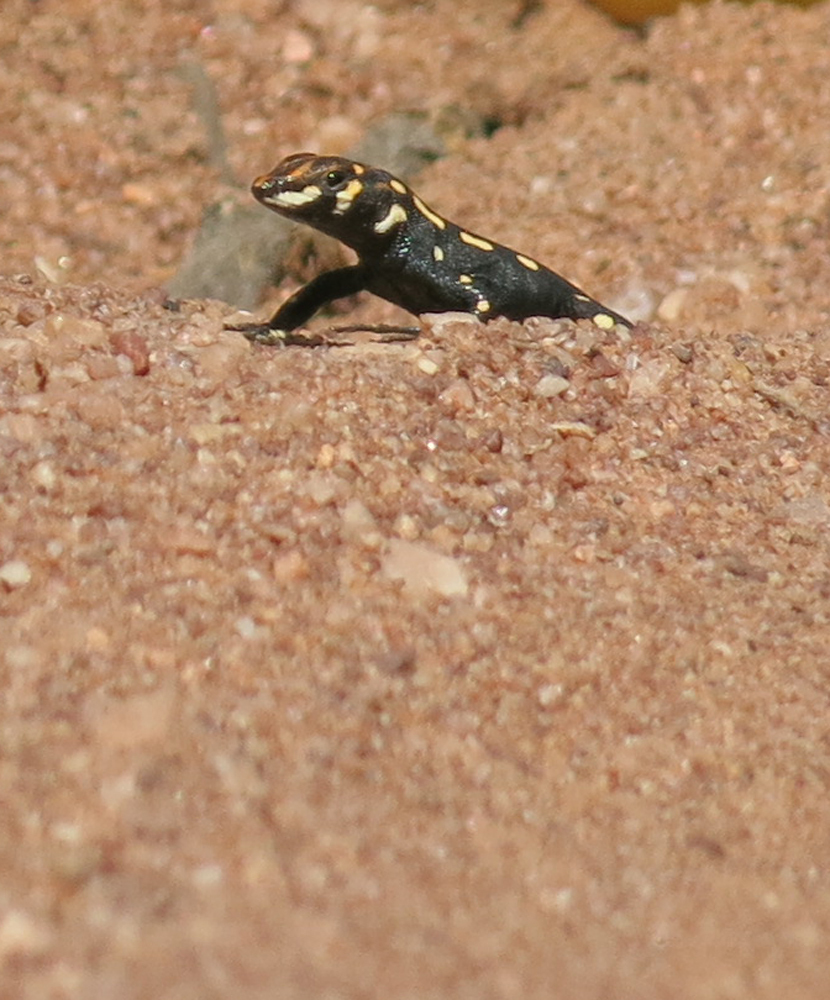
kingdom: Animalia
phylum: Chordata
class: Squamata
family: Lacertidae
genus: Heliobolus
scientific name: Heliobolus lugubris
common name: Bushveld lizard
